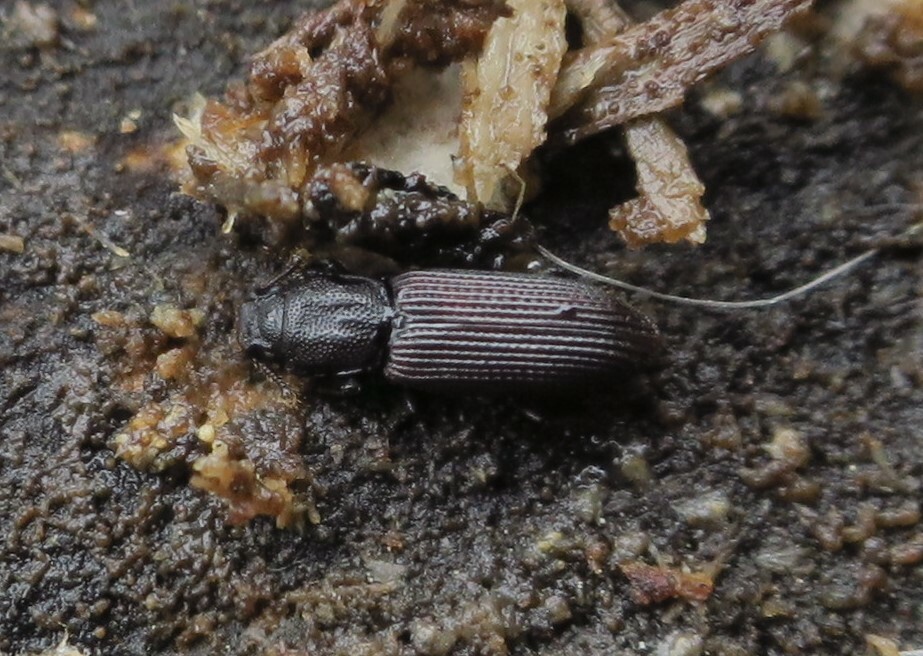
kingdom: Animalia
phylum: Arthropoda
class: Insecta
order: Coleoptera
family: Zopheridae
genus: Pycnomerus
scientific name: Pycnomerus
